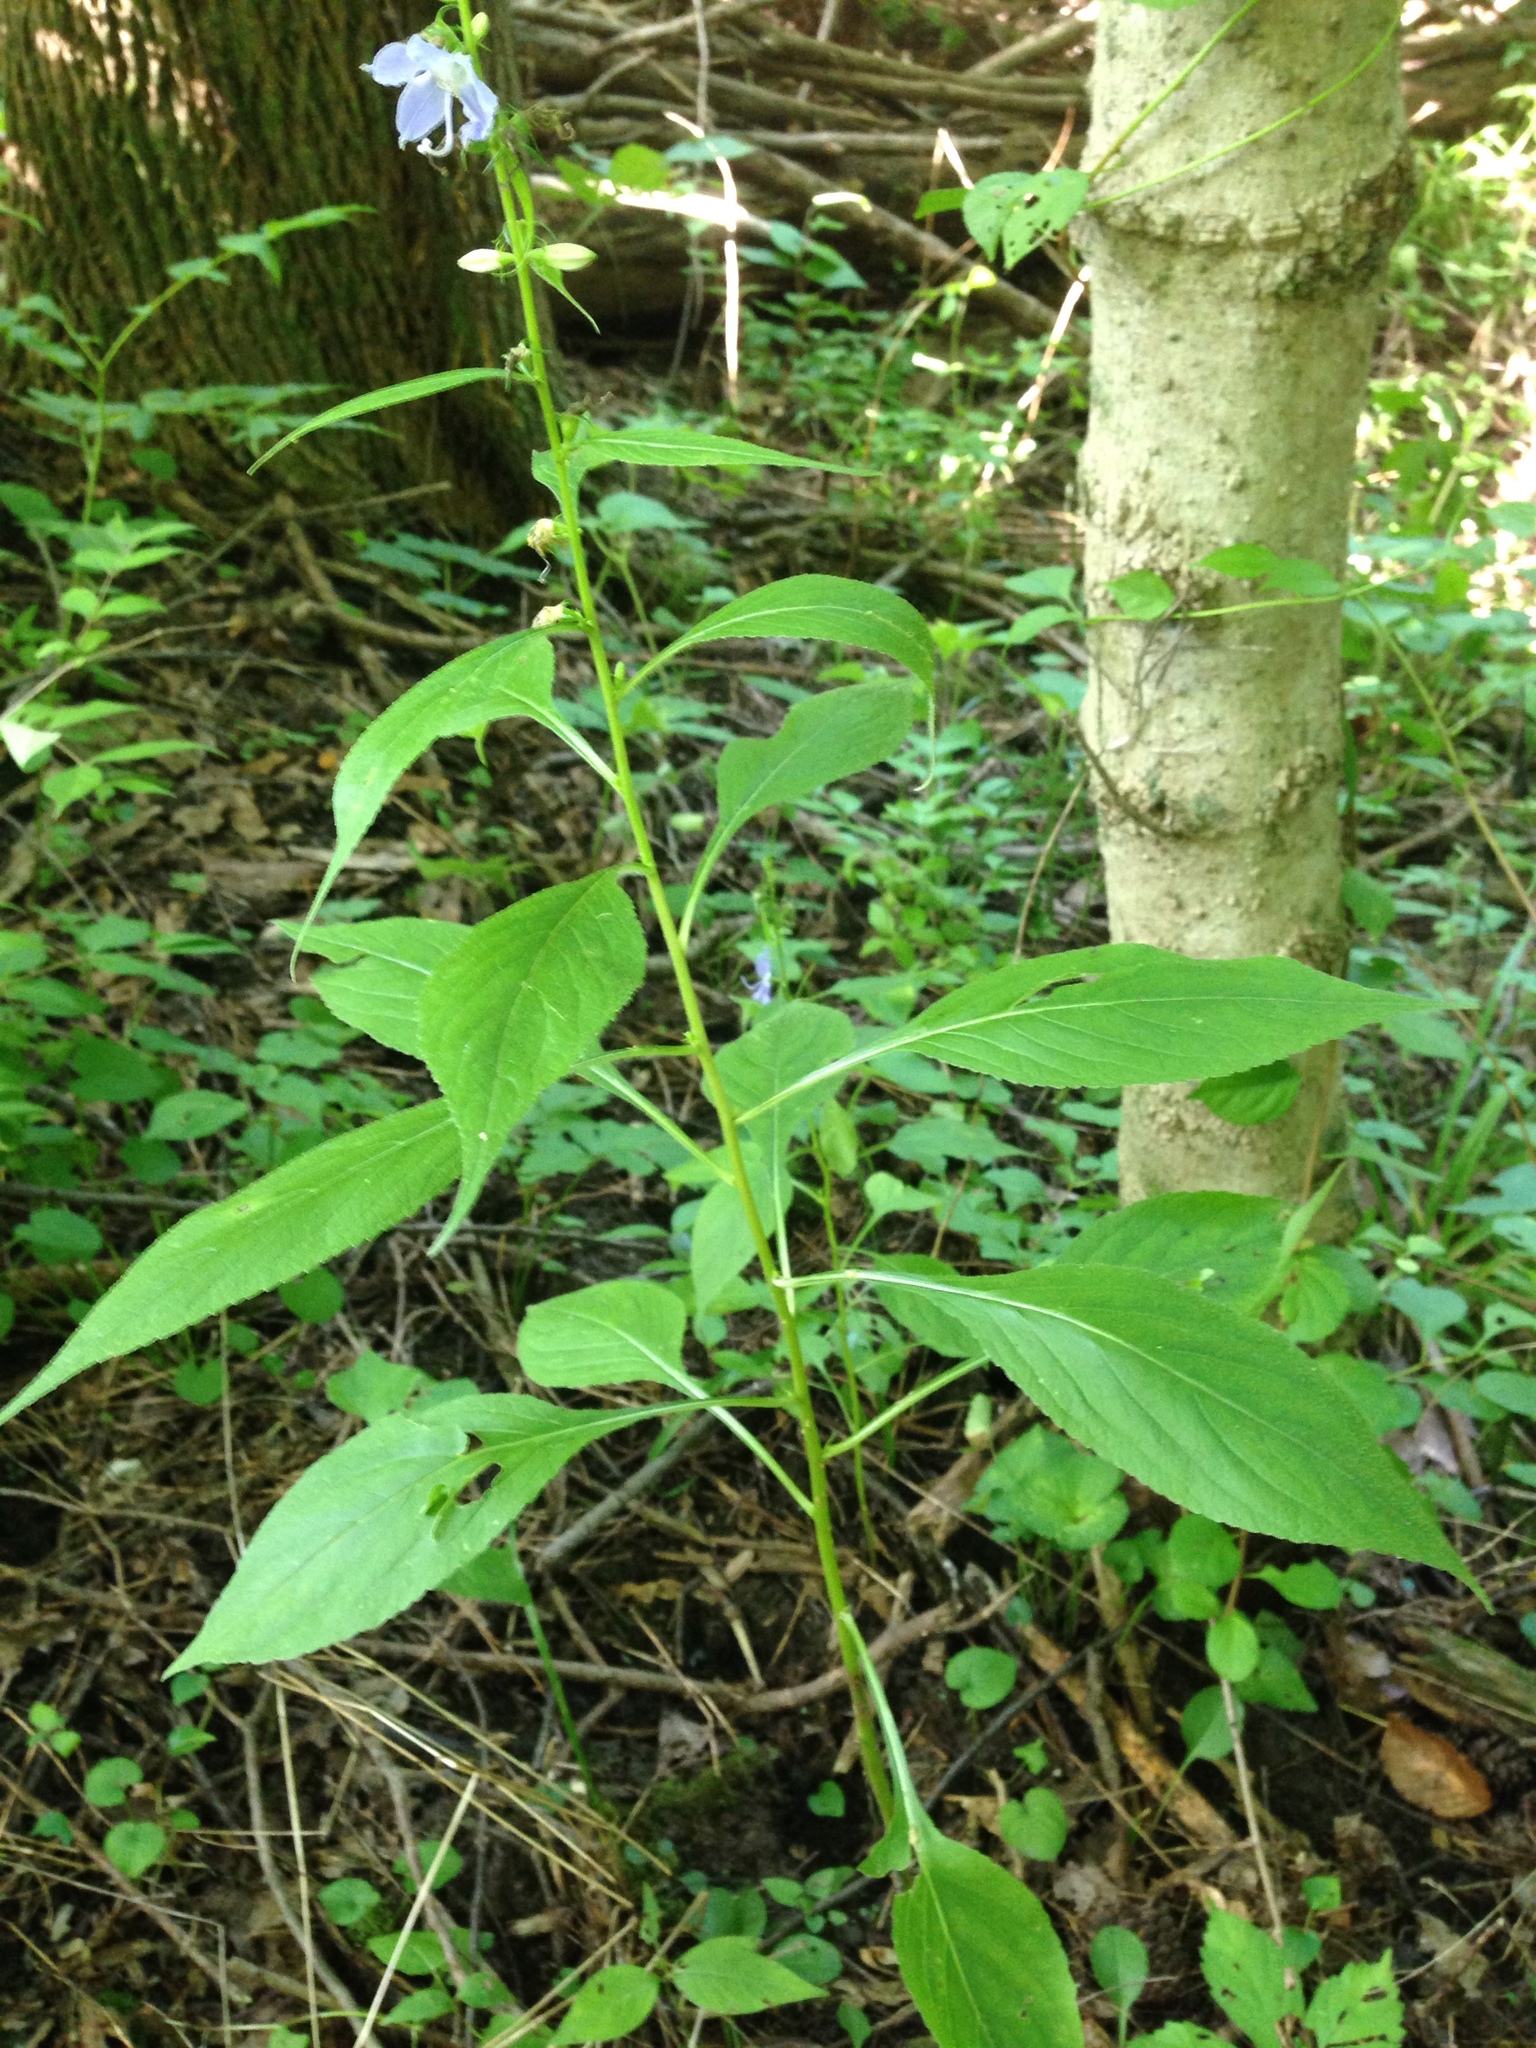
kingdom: Plantae
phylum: Tracheophyta
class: Magnoliopsida
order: Asterales
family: Campanulaceae
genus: Campanulastrum
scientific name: Campanulastrum americanum
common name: American bellflower
